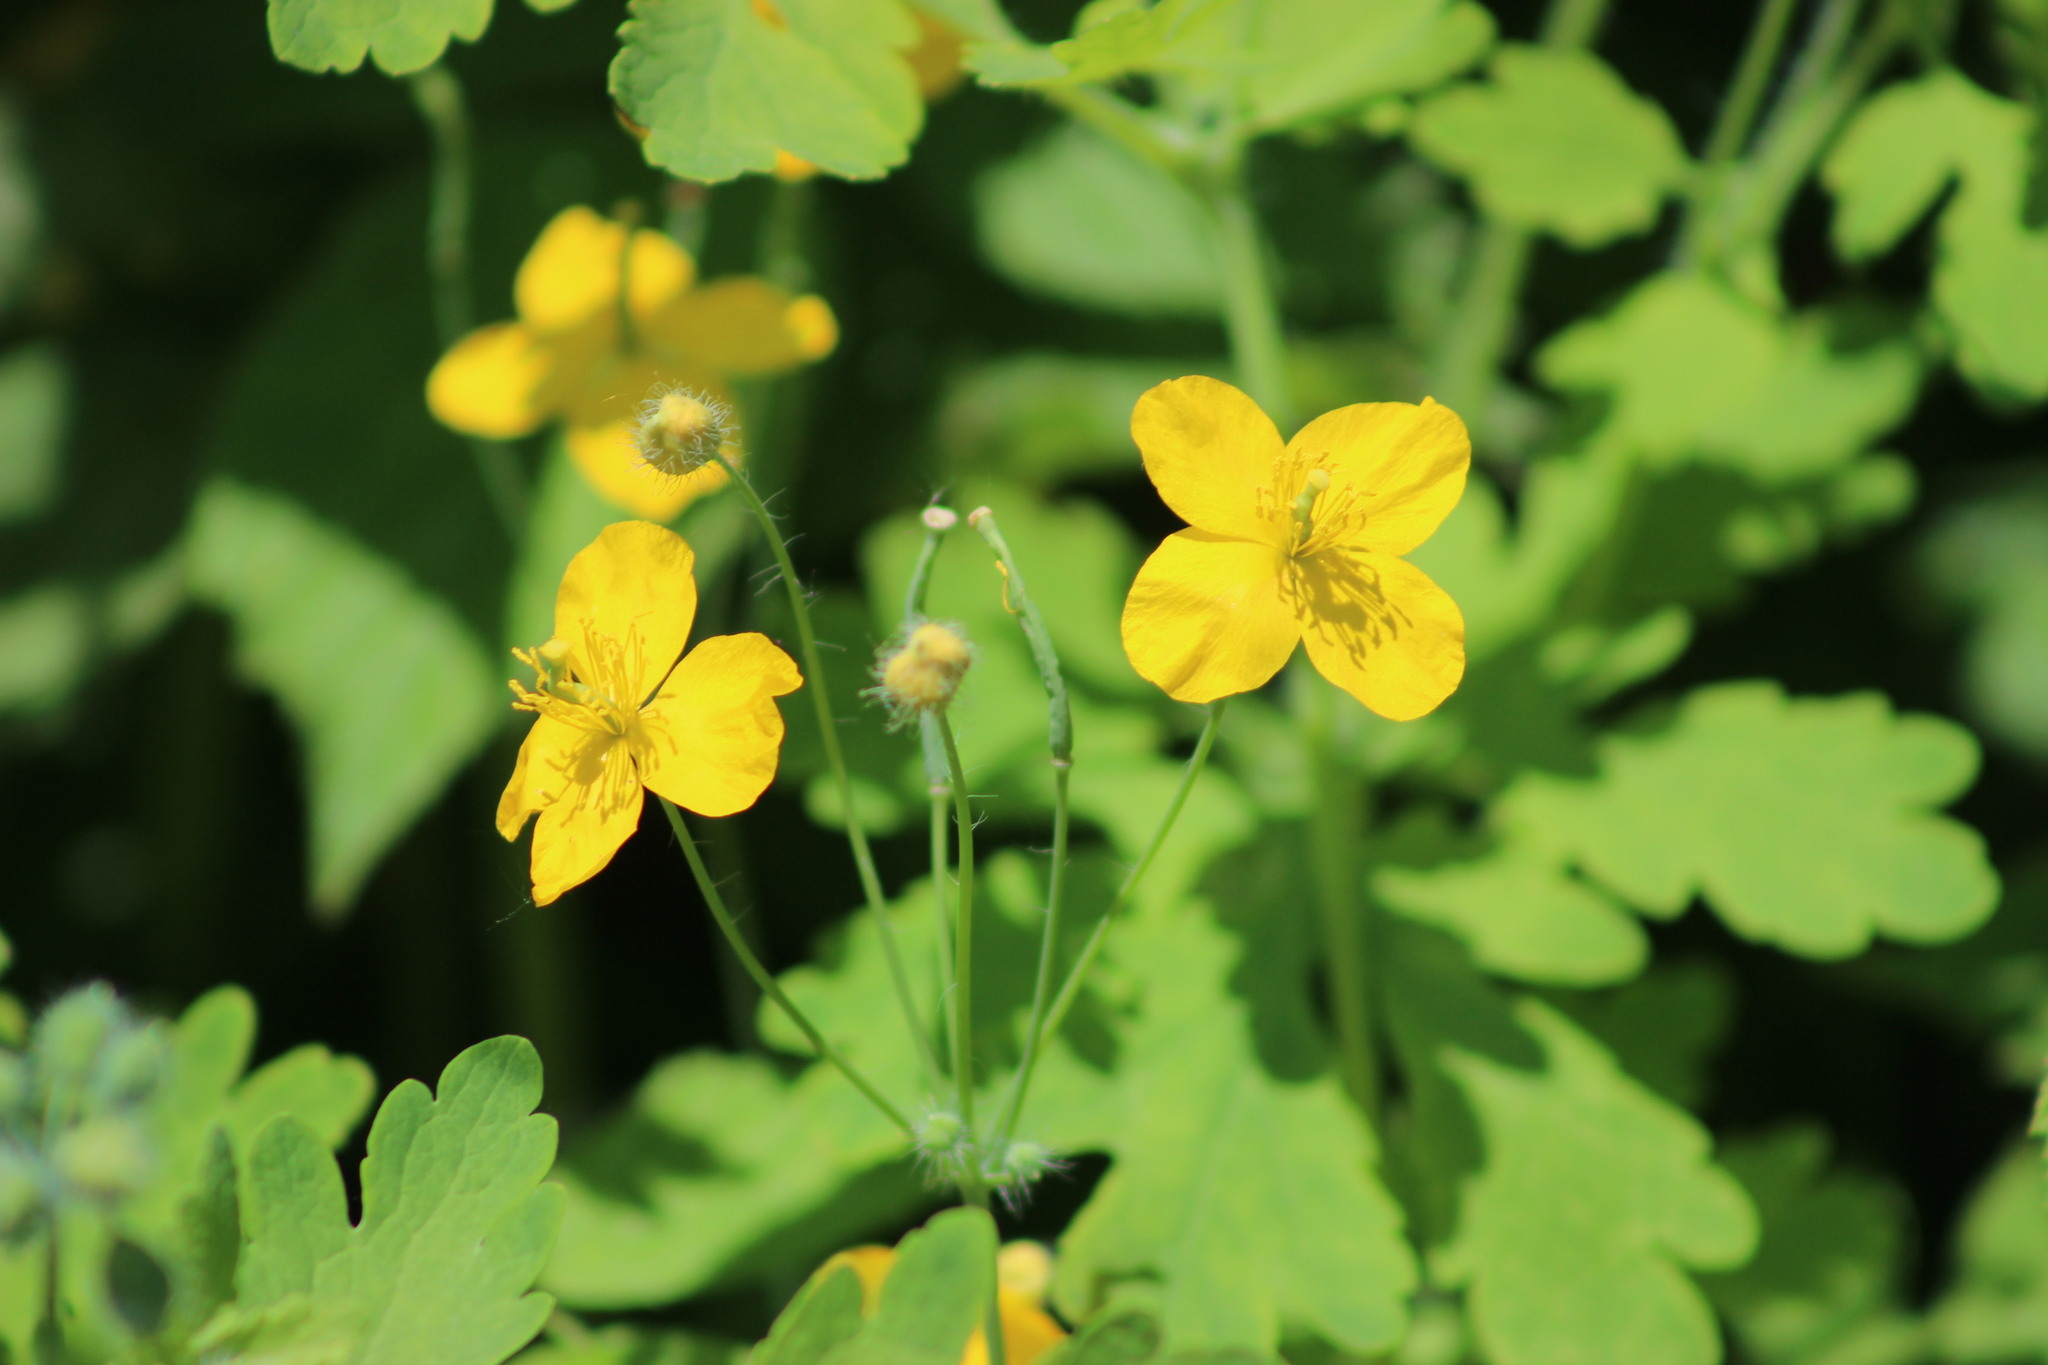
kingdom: Plantae
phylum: Tracheophyta
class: Magnoliopsida
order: Ranunculales
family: Papaveraceae
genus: Chelidonium
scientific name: Chelidonium majus
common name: Greater celandine
